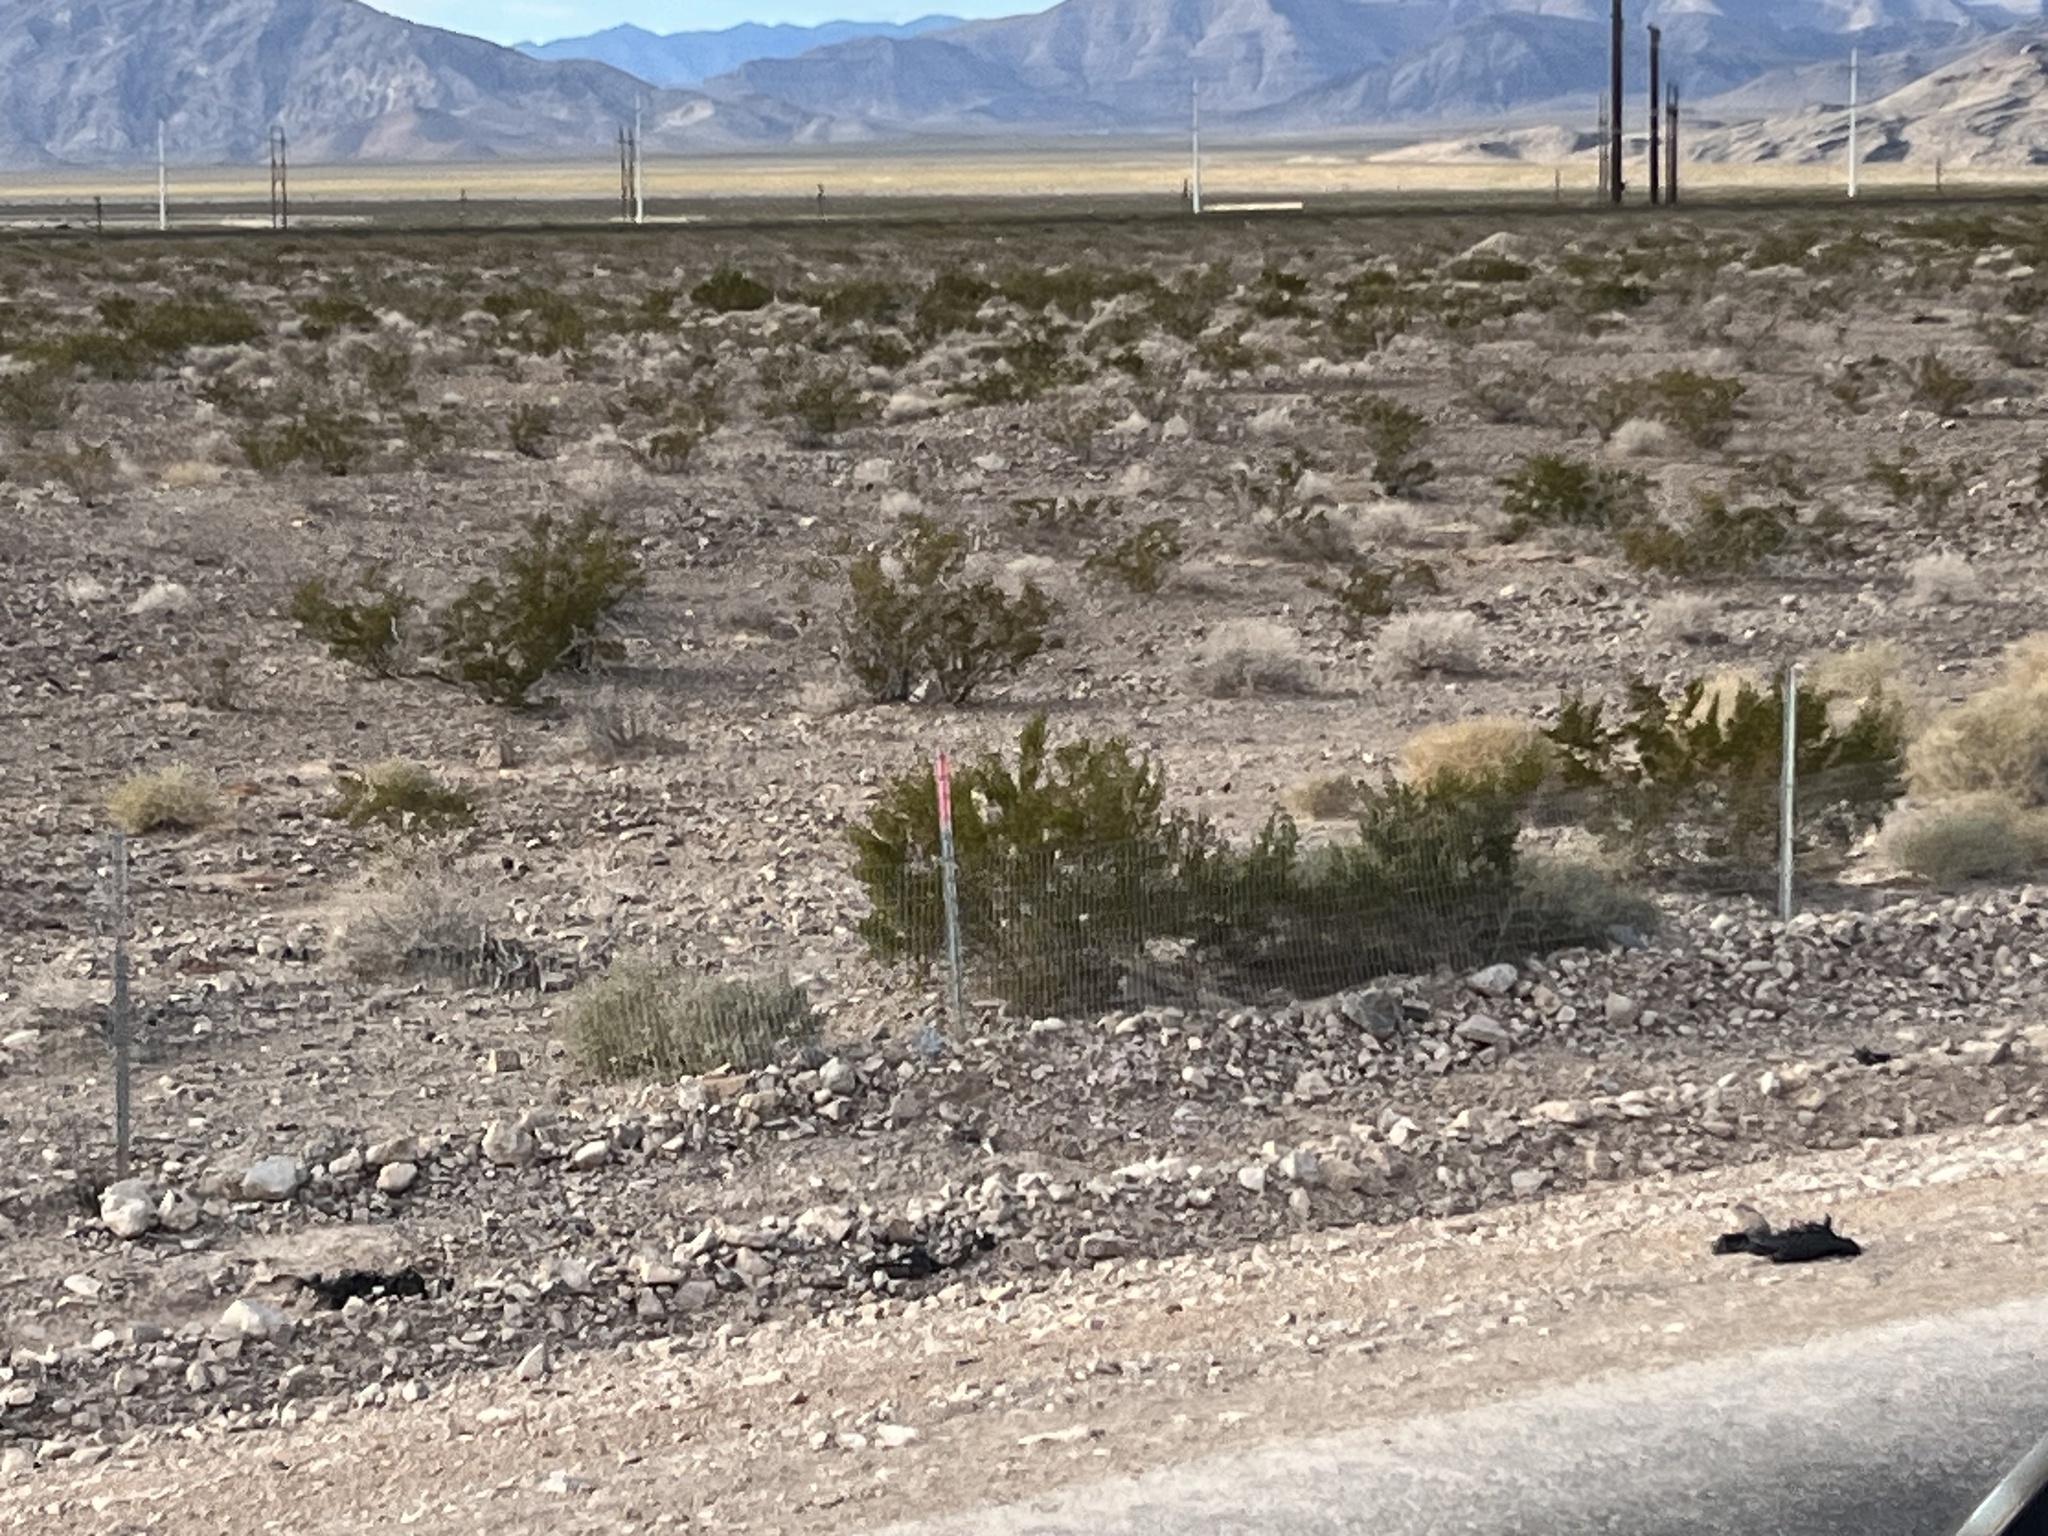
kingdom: Plantae
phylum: Tracheophyta
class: Magnoliopsida
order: Zygophyllales
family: Zygophyllaceae
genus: Larrea
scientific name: Larrea tridentata
